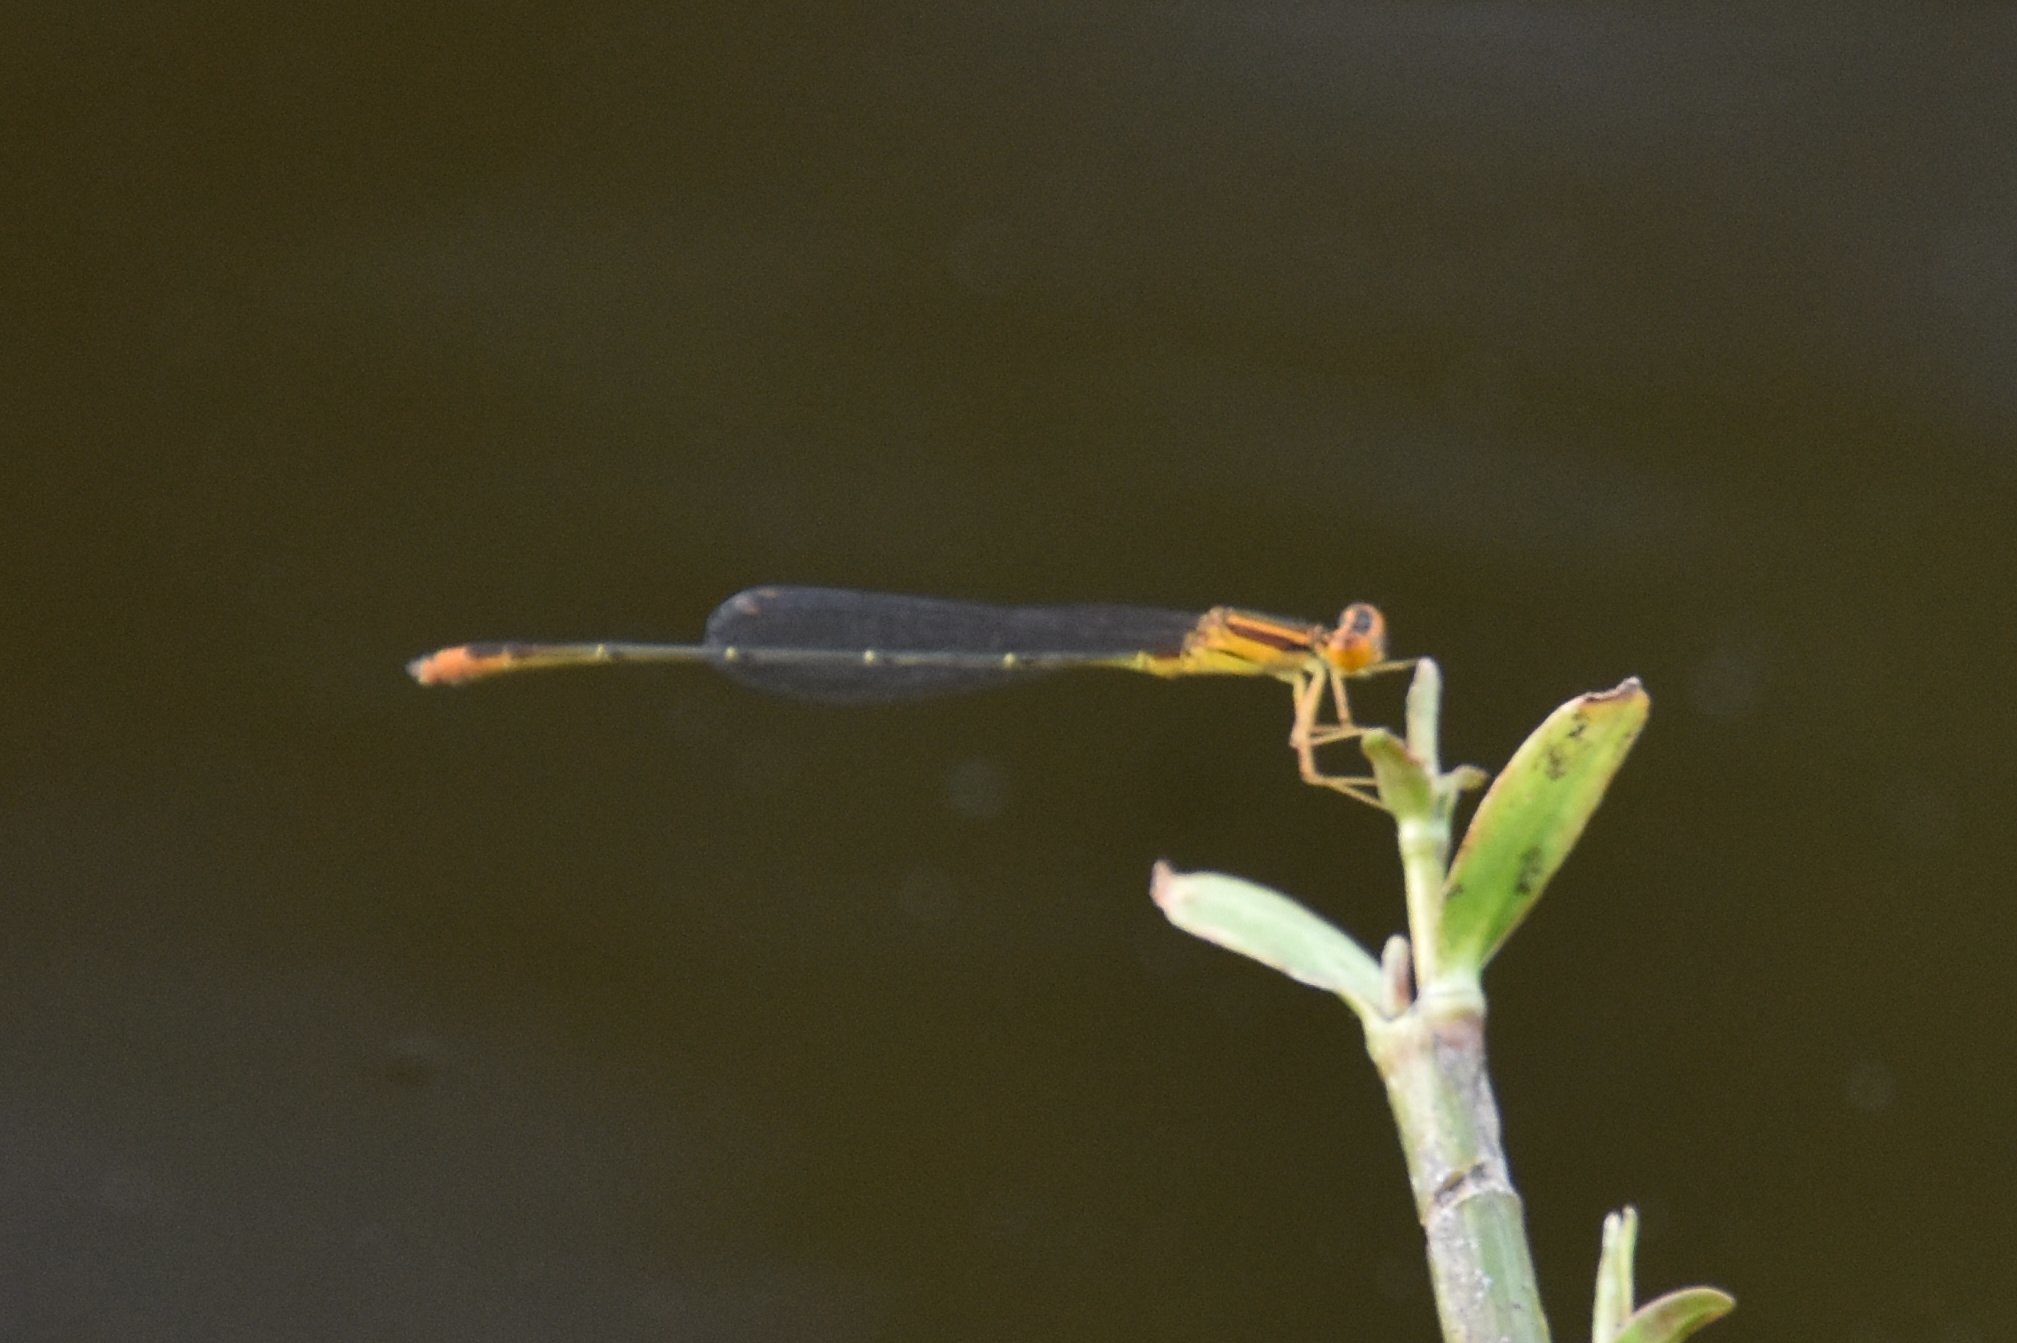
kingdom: Animalia
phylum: Arthropoda
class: Insecta
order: Odonata
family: Coenagrionidae
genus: Enallagma
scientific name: Enallagma pollutum
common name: Florida bluet
